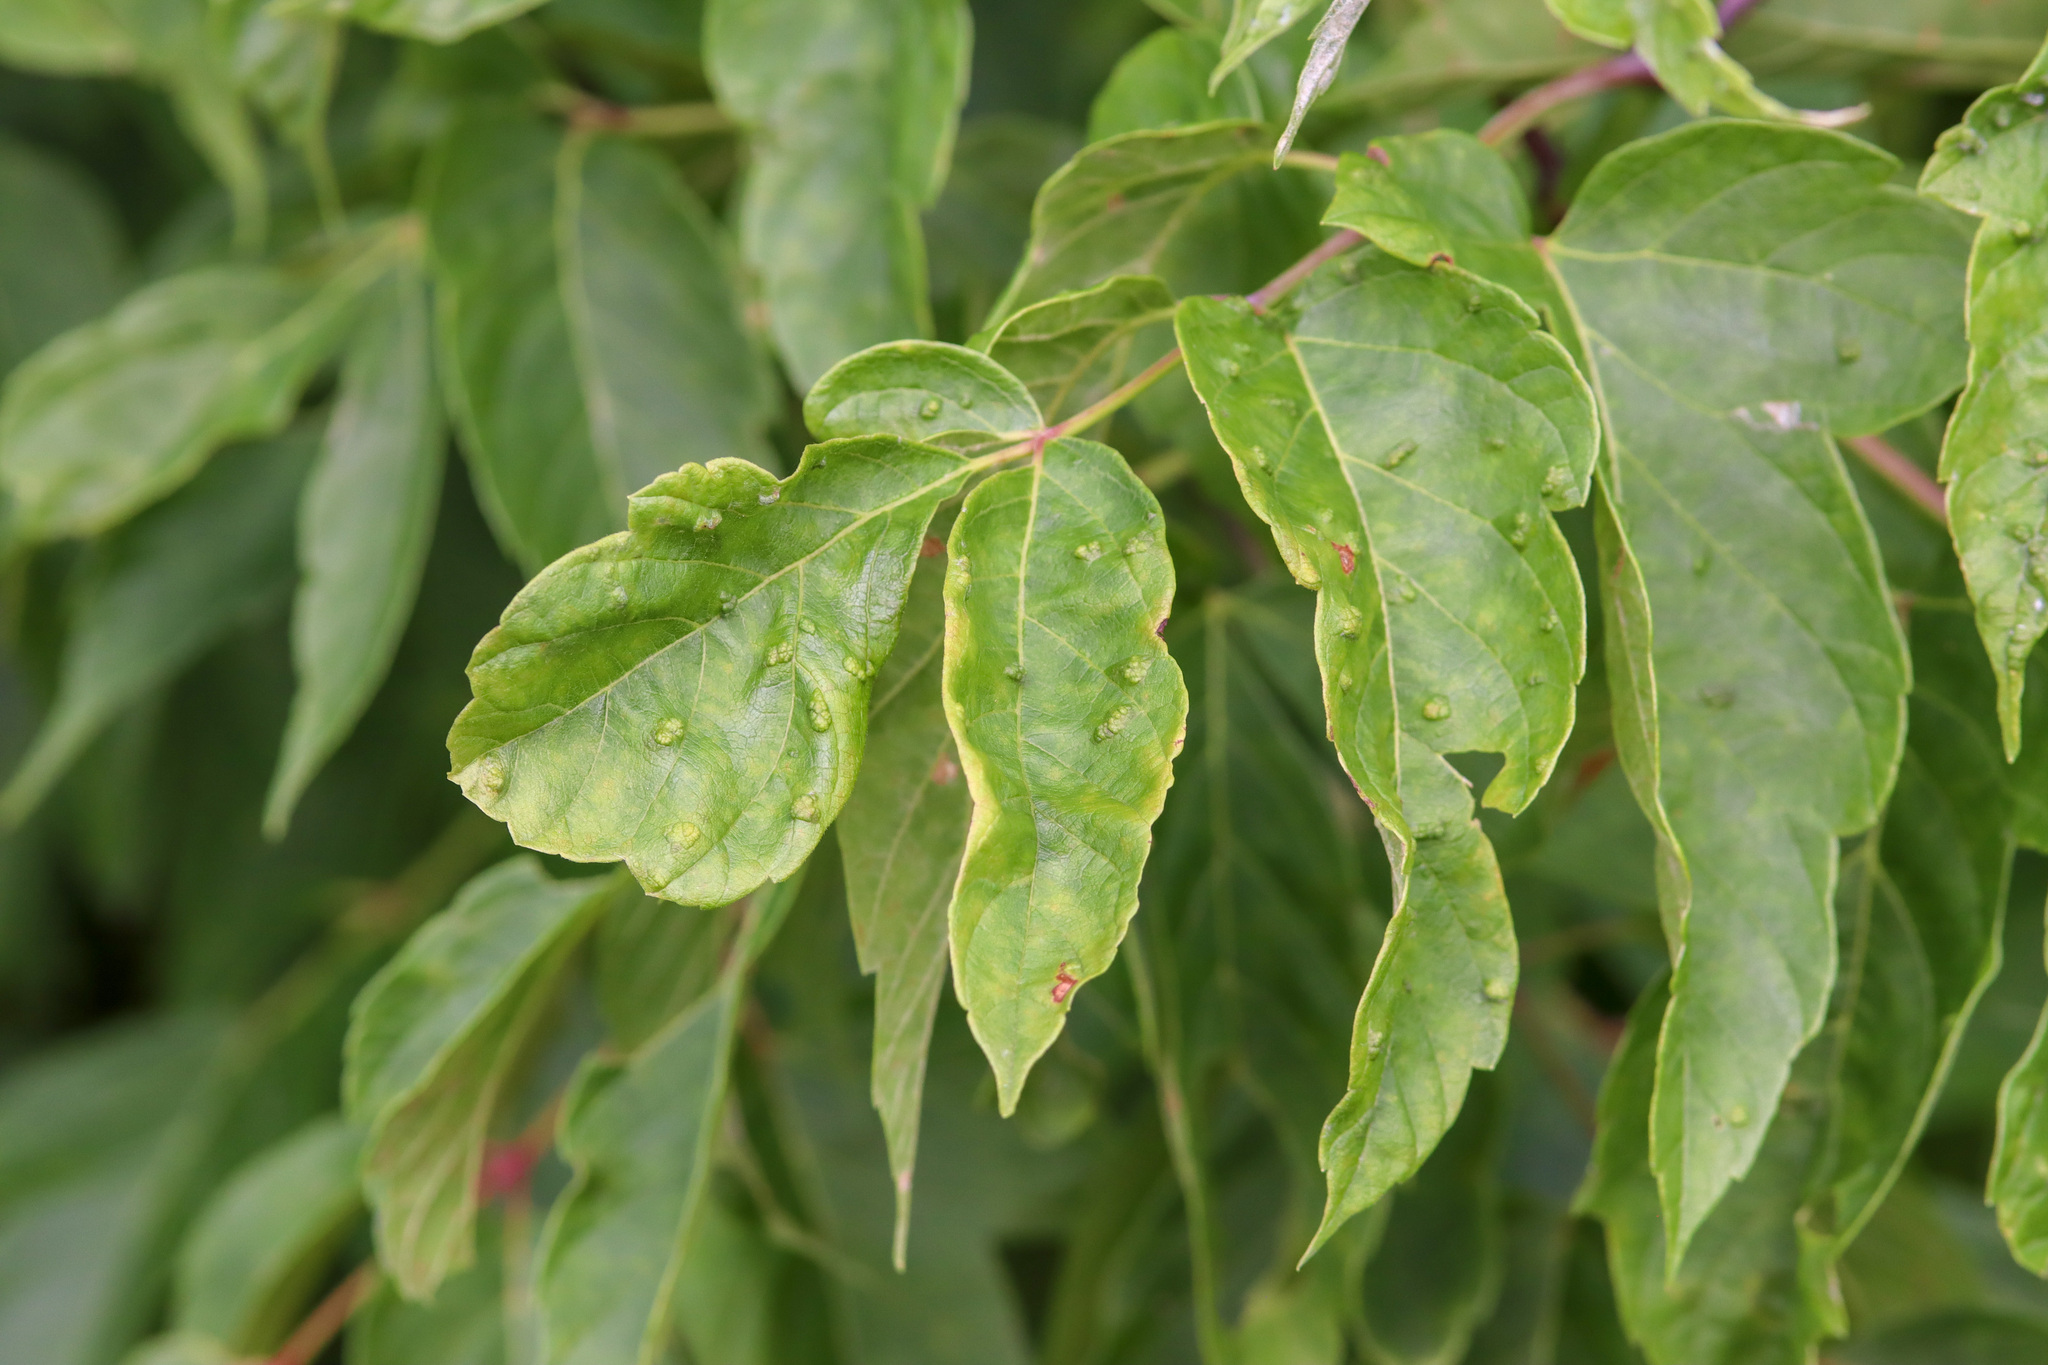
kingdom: Plantae
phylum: Tracheophyta
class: Magnoliopsida
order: Sapindales
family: Sapindaceae
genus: Acer
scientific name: Acer negundo
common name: Ashleaf maple
